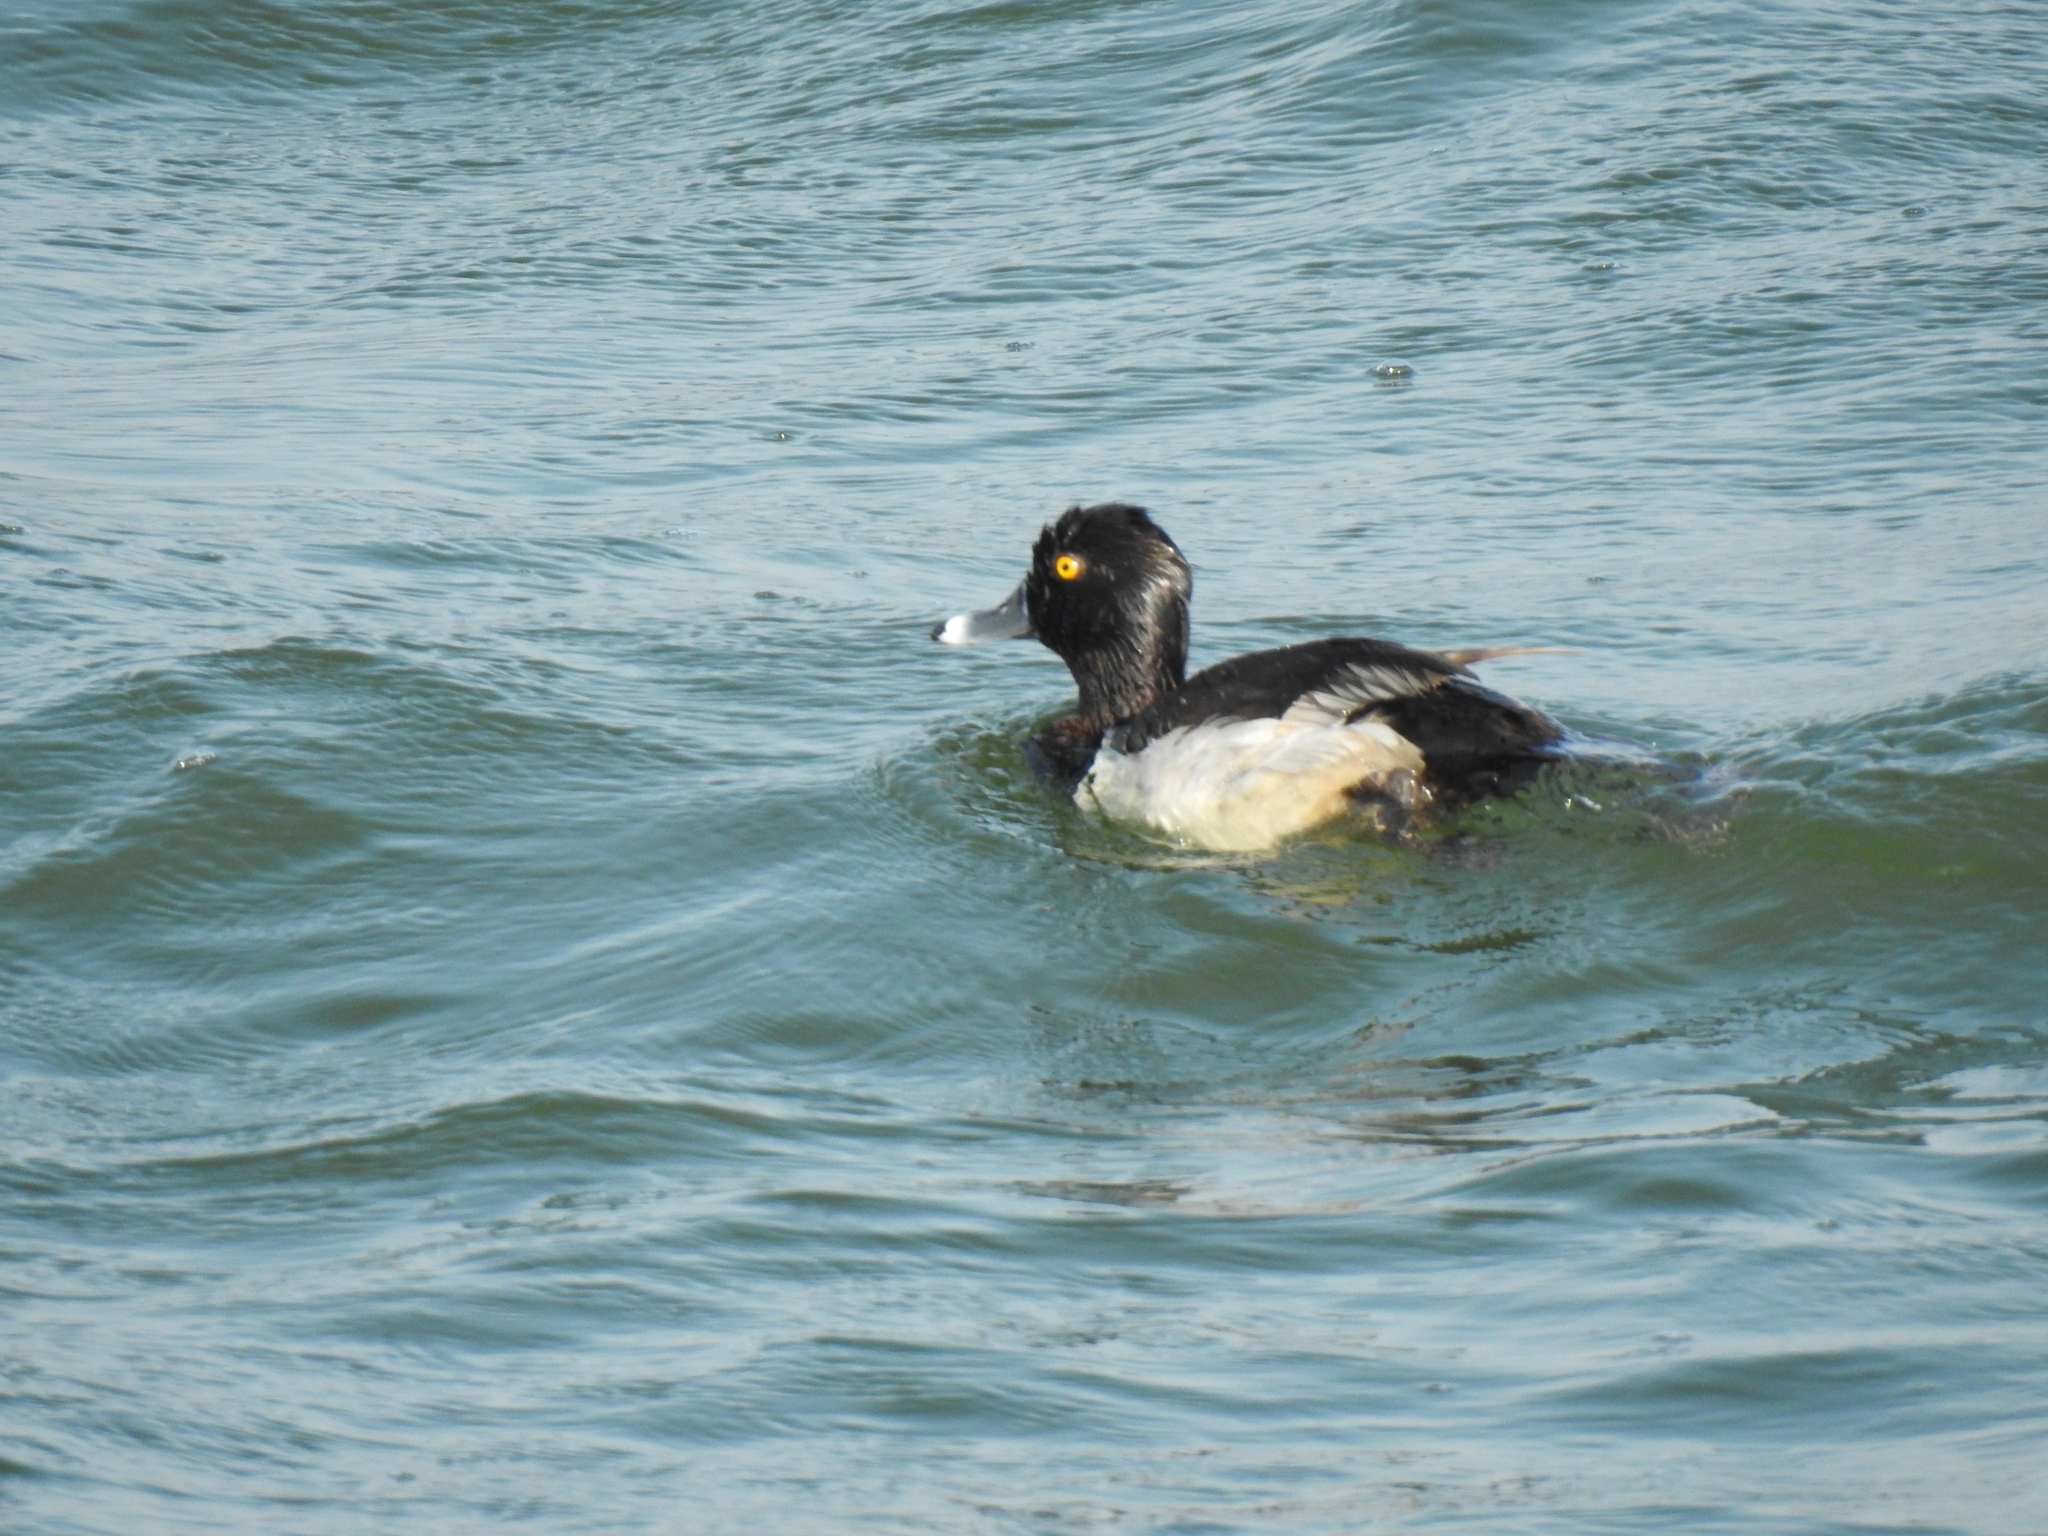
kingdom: Animalia
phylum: Chordata
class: Aves
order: Anseriformes
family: Anatidae
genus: Aythya
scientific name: Aythya collaris
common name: Ring-necked duck
